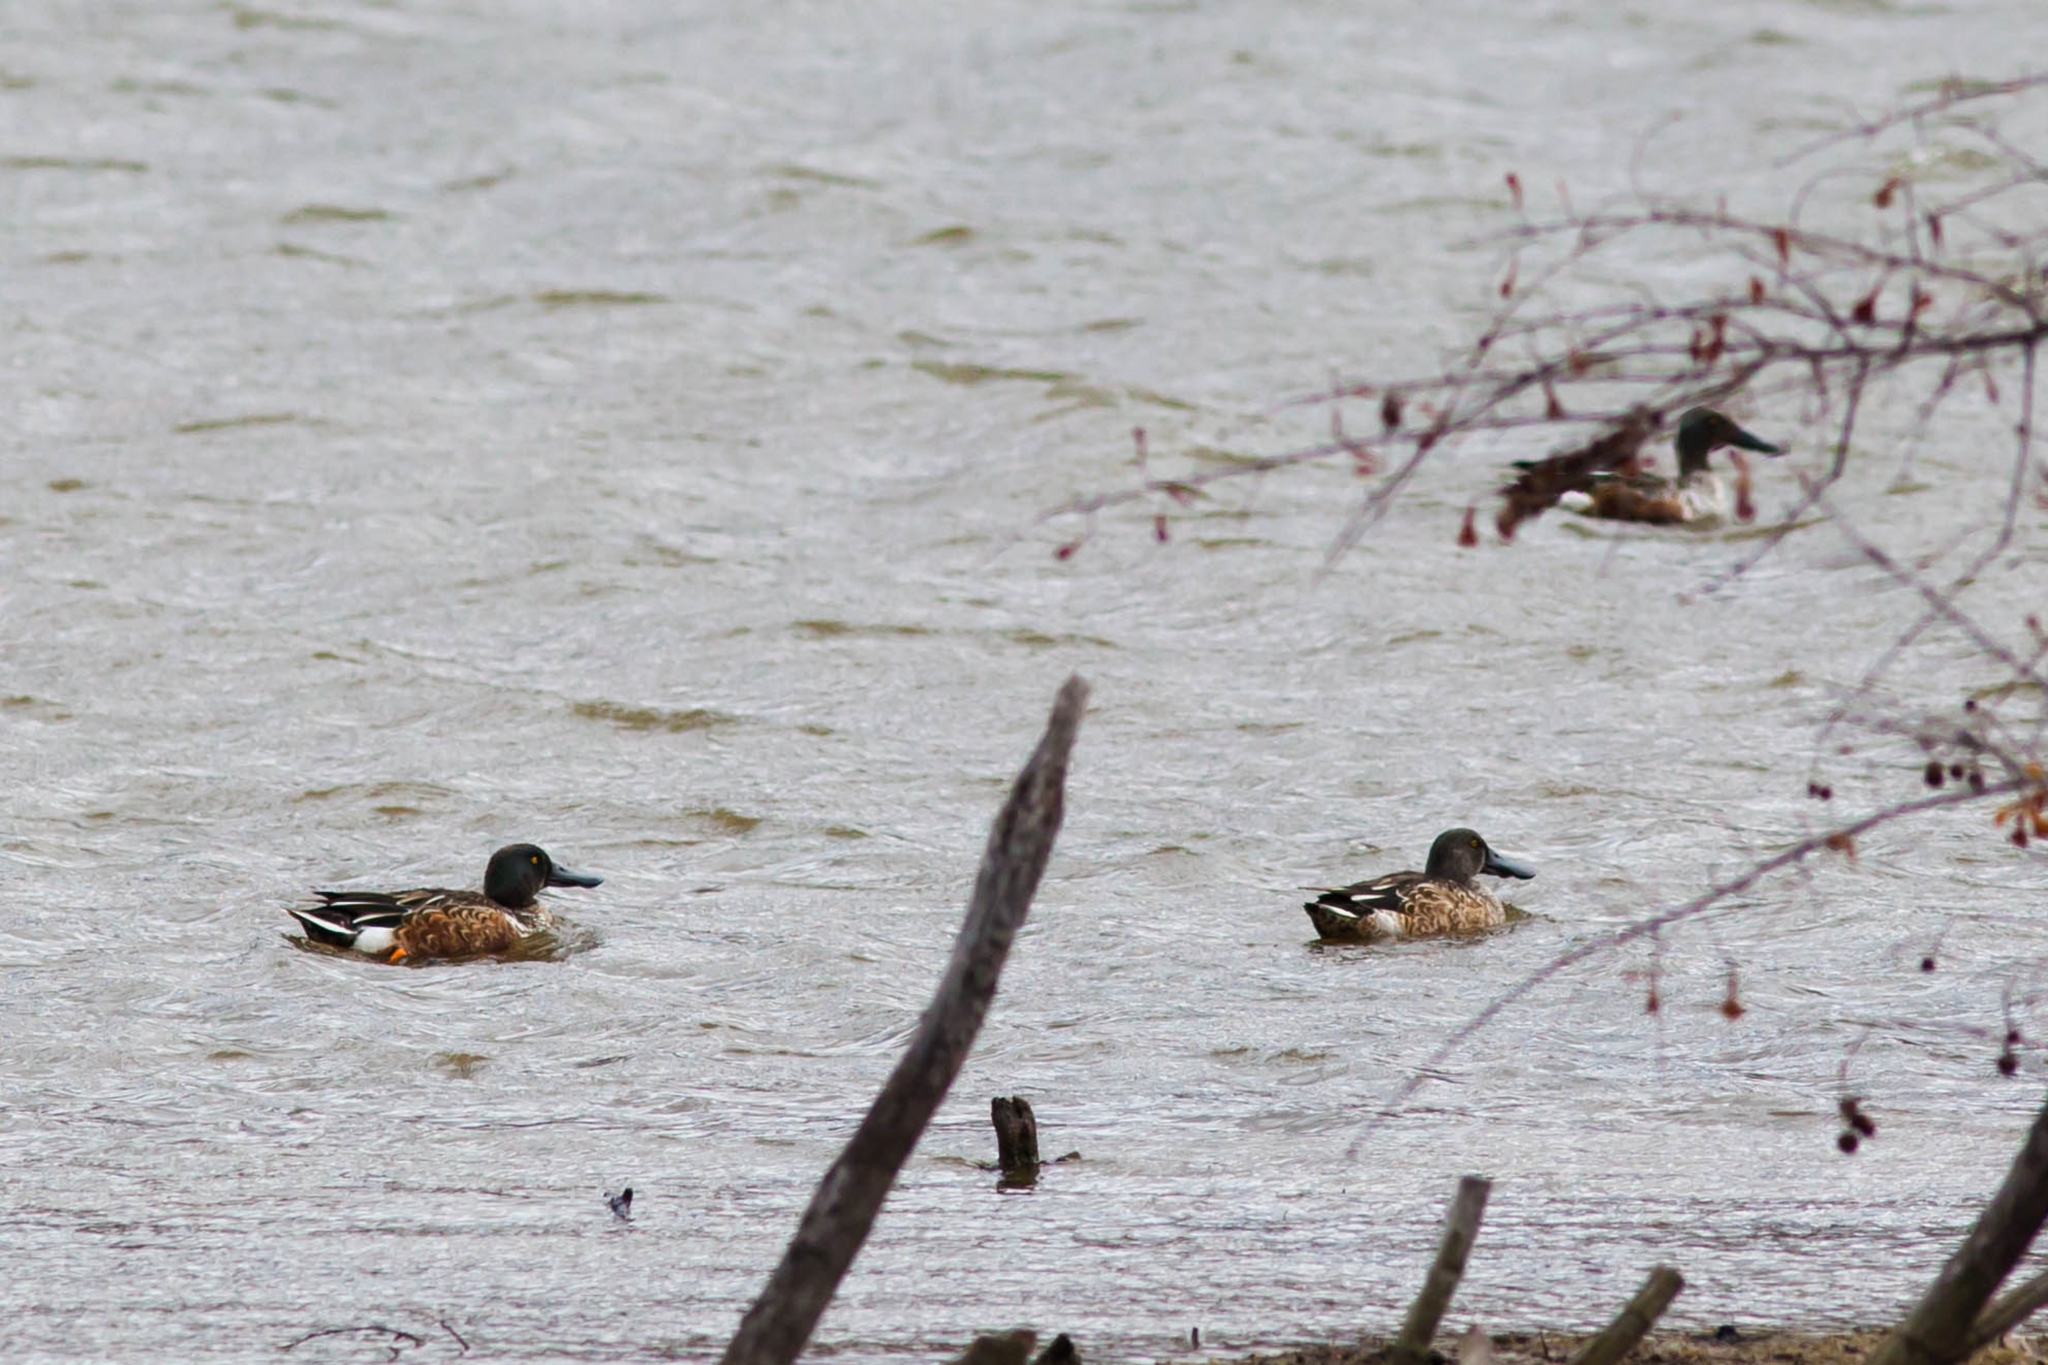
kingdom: Animalia
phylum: Chordata
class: Aves
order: Anseriformes
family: Anatidae
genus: Spatula
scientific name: Spatula clypeata
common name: Northern shoveler
